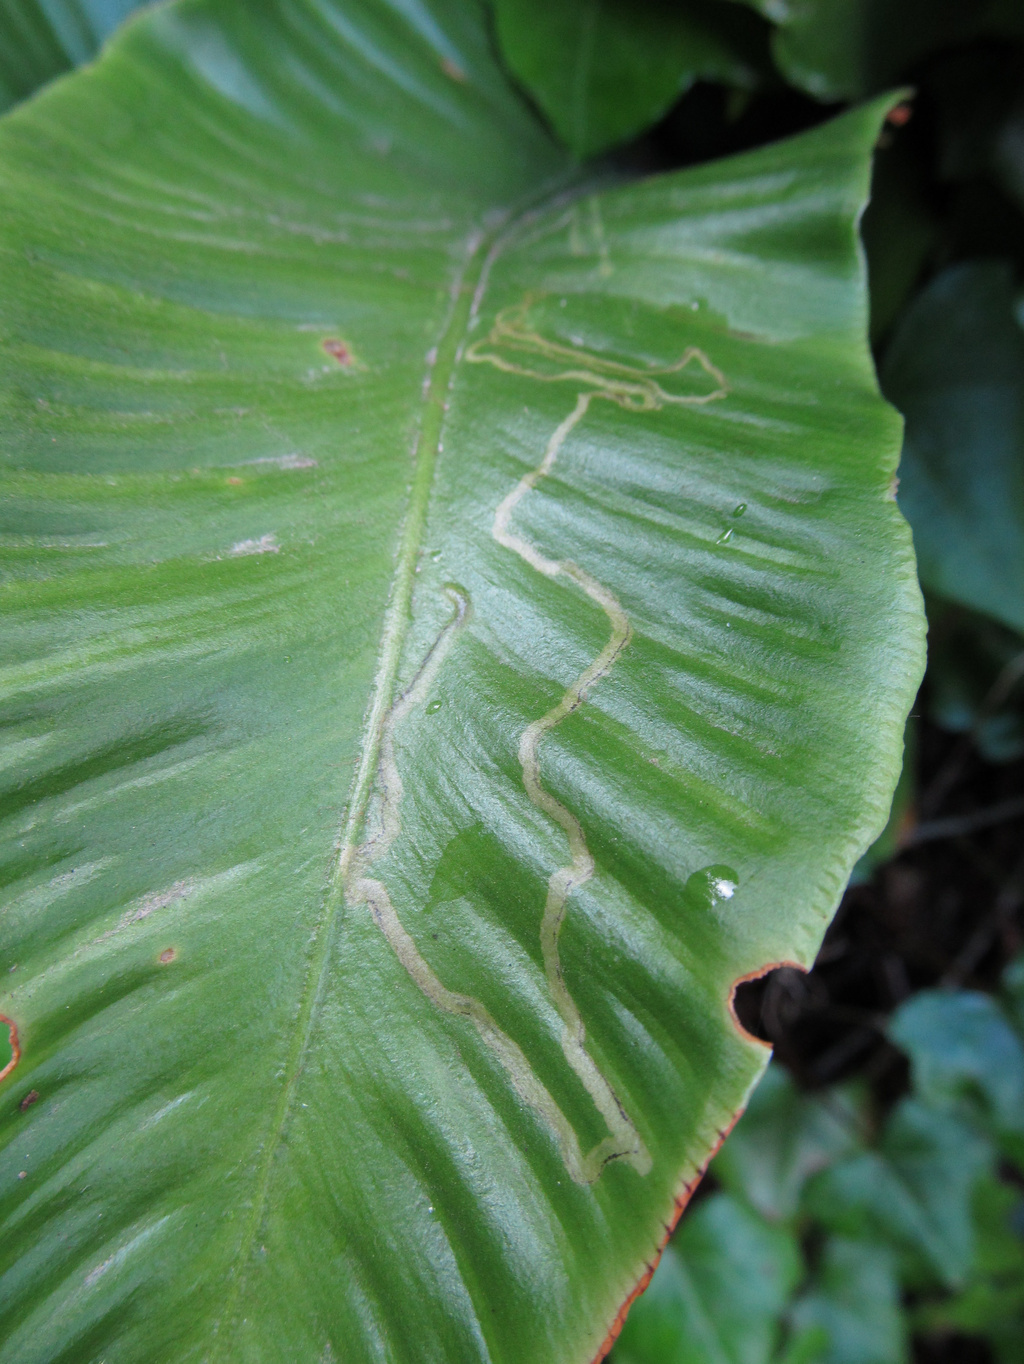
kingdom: Animalia
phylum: Arthropoda
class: Insecta
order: Diptera
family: Agromyzidae
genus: Phytomyza
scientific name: Phytomyza scolopendri
